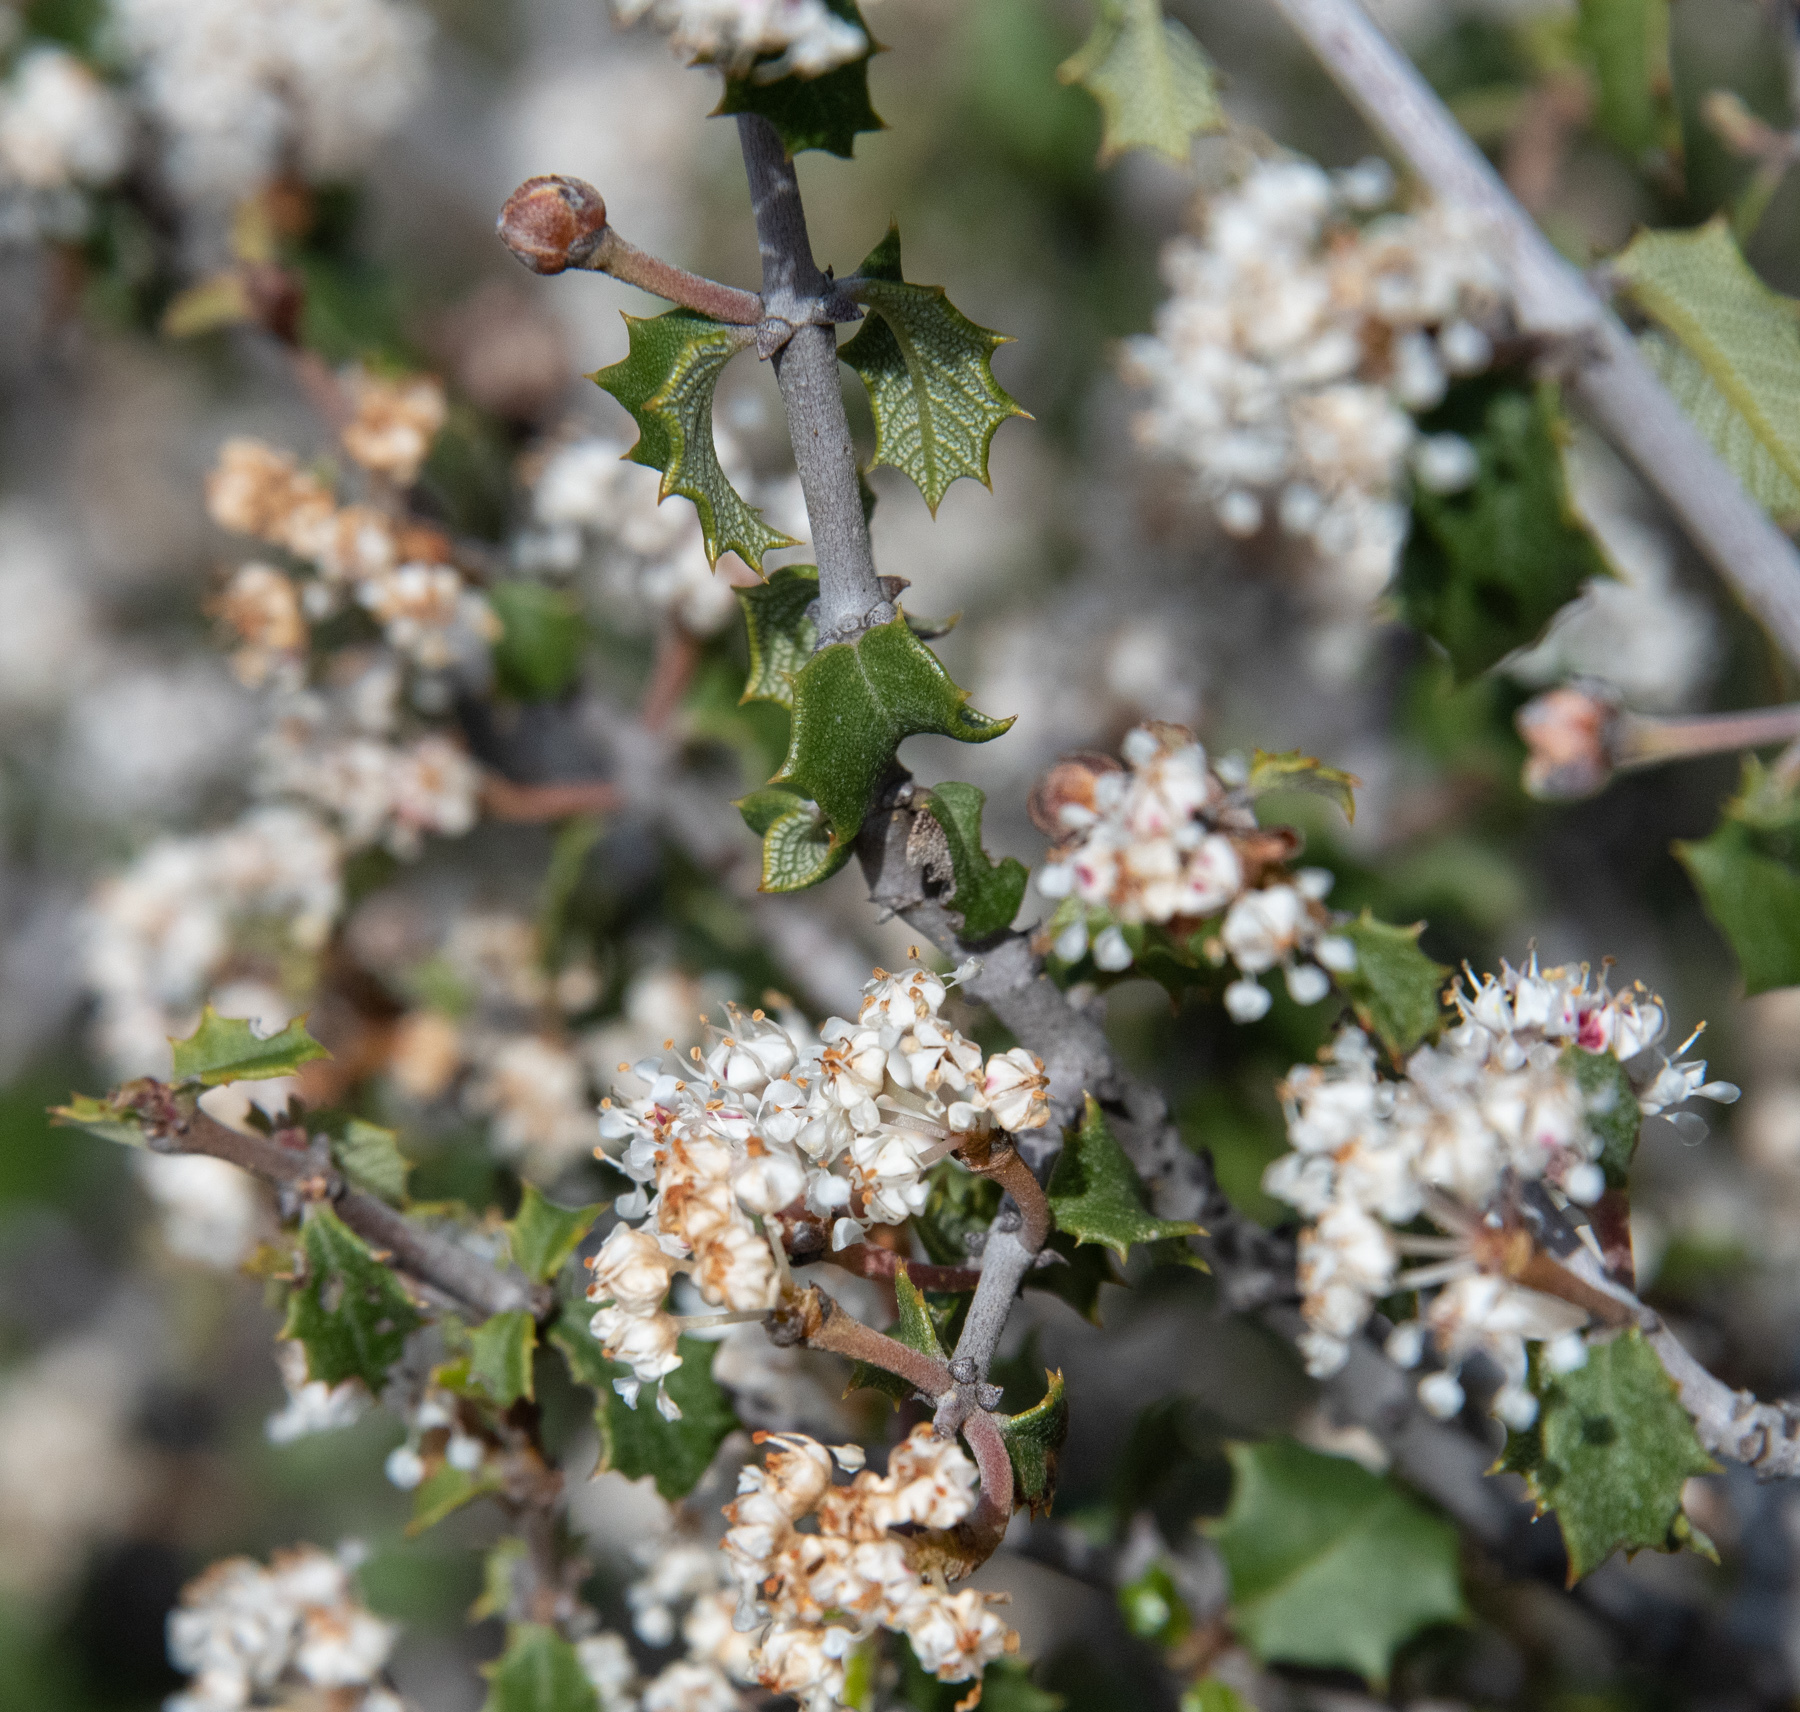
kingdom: Plantae
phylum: Tracheophyta
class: Magnoliopsida
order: Rosales
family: Rhamnaceae
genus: Ceanothus
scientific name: Ceanothus jepsonii
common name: Muskbrush
